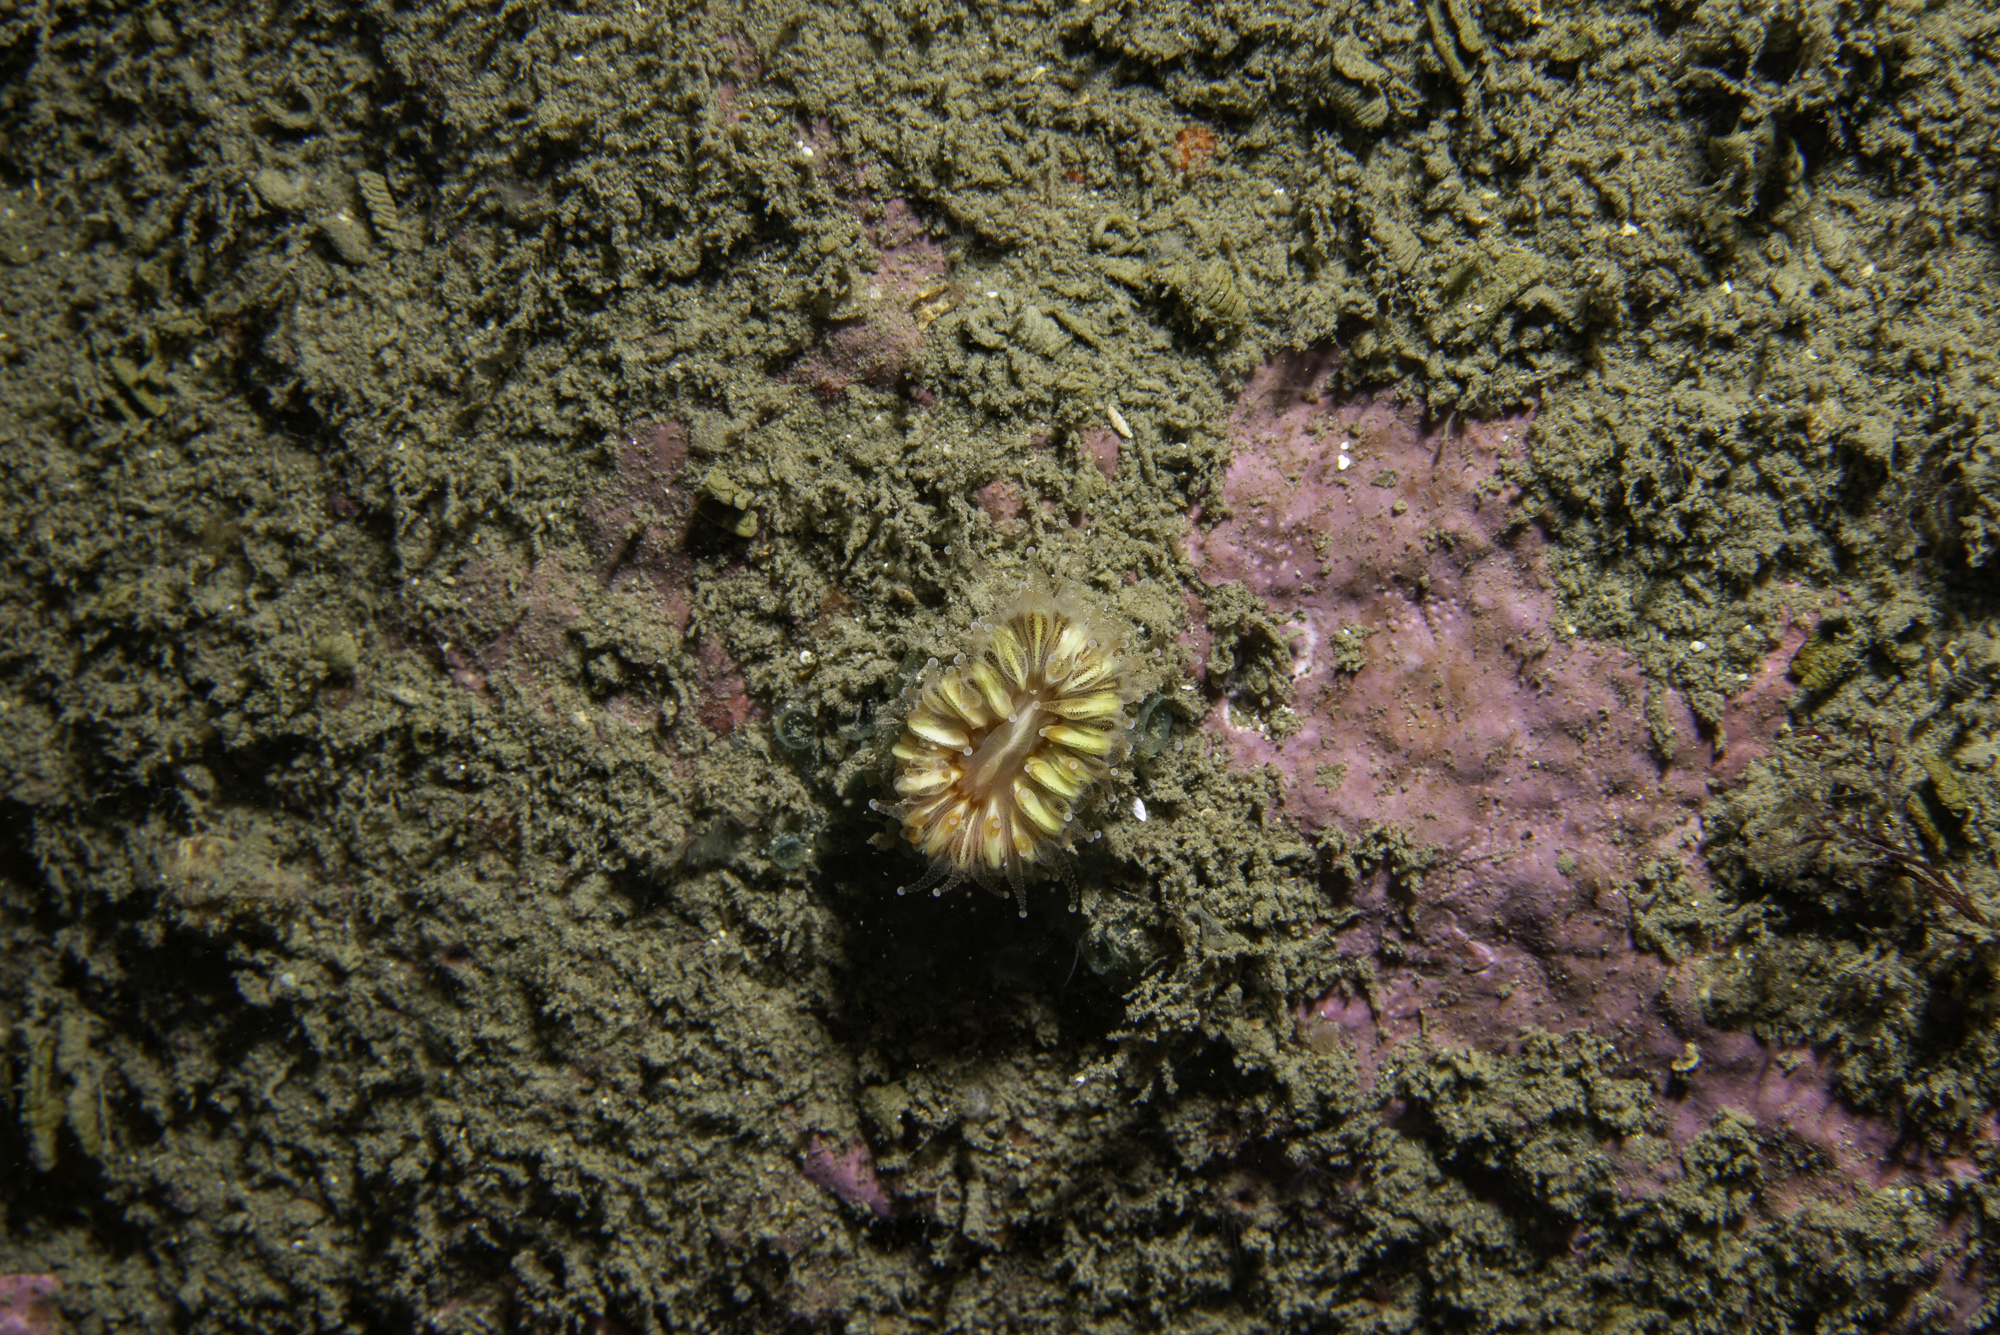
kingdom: Animalia
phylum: Cnidaria
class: Anthozoa
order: Scleractinia
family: Caryophylliidae
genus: Caryophyllia
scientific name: Caryophyllia smithii
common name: Devonshire cup coral
